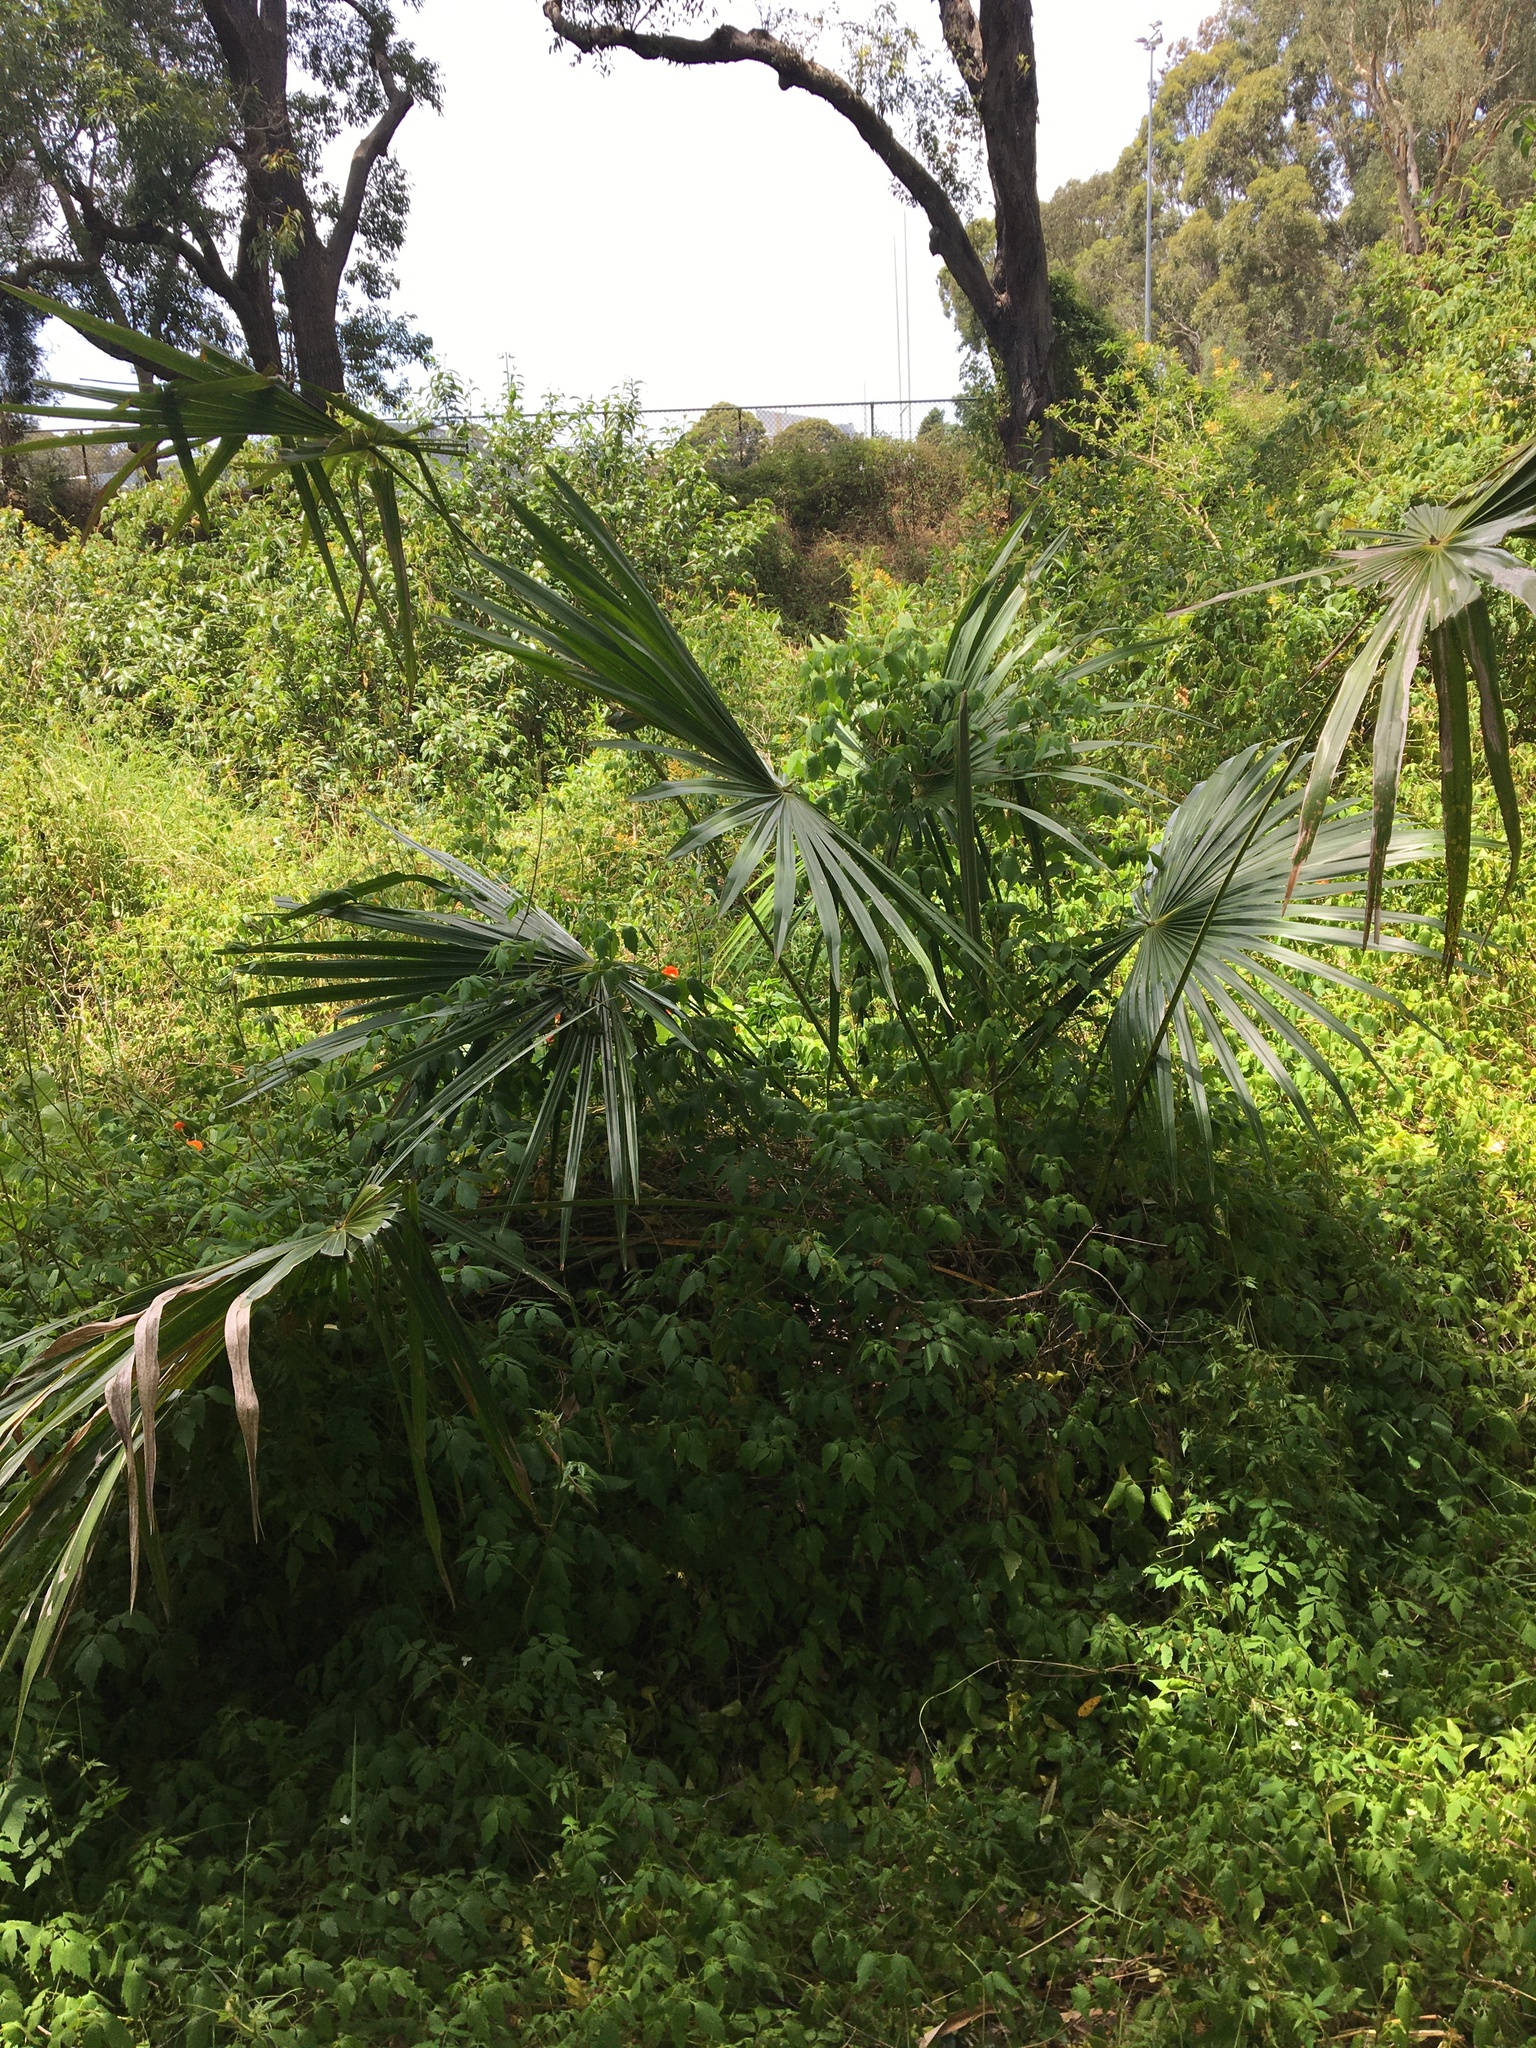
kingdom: Plantae
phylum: Tracheophyta
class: Liliopsida
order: Arecales
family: Arecaceae
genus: Livistona
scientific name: Livistona australis
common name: Cabbage fan palm
